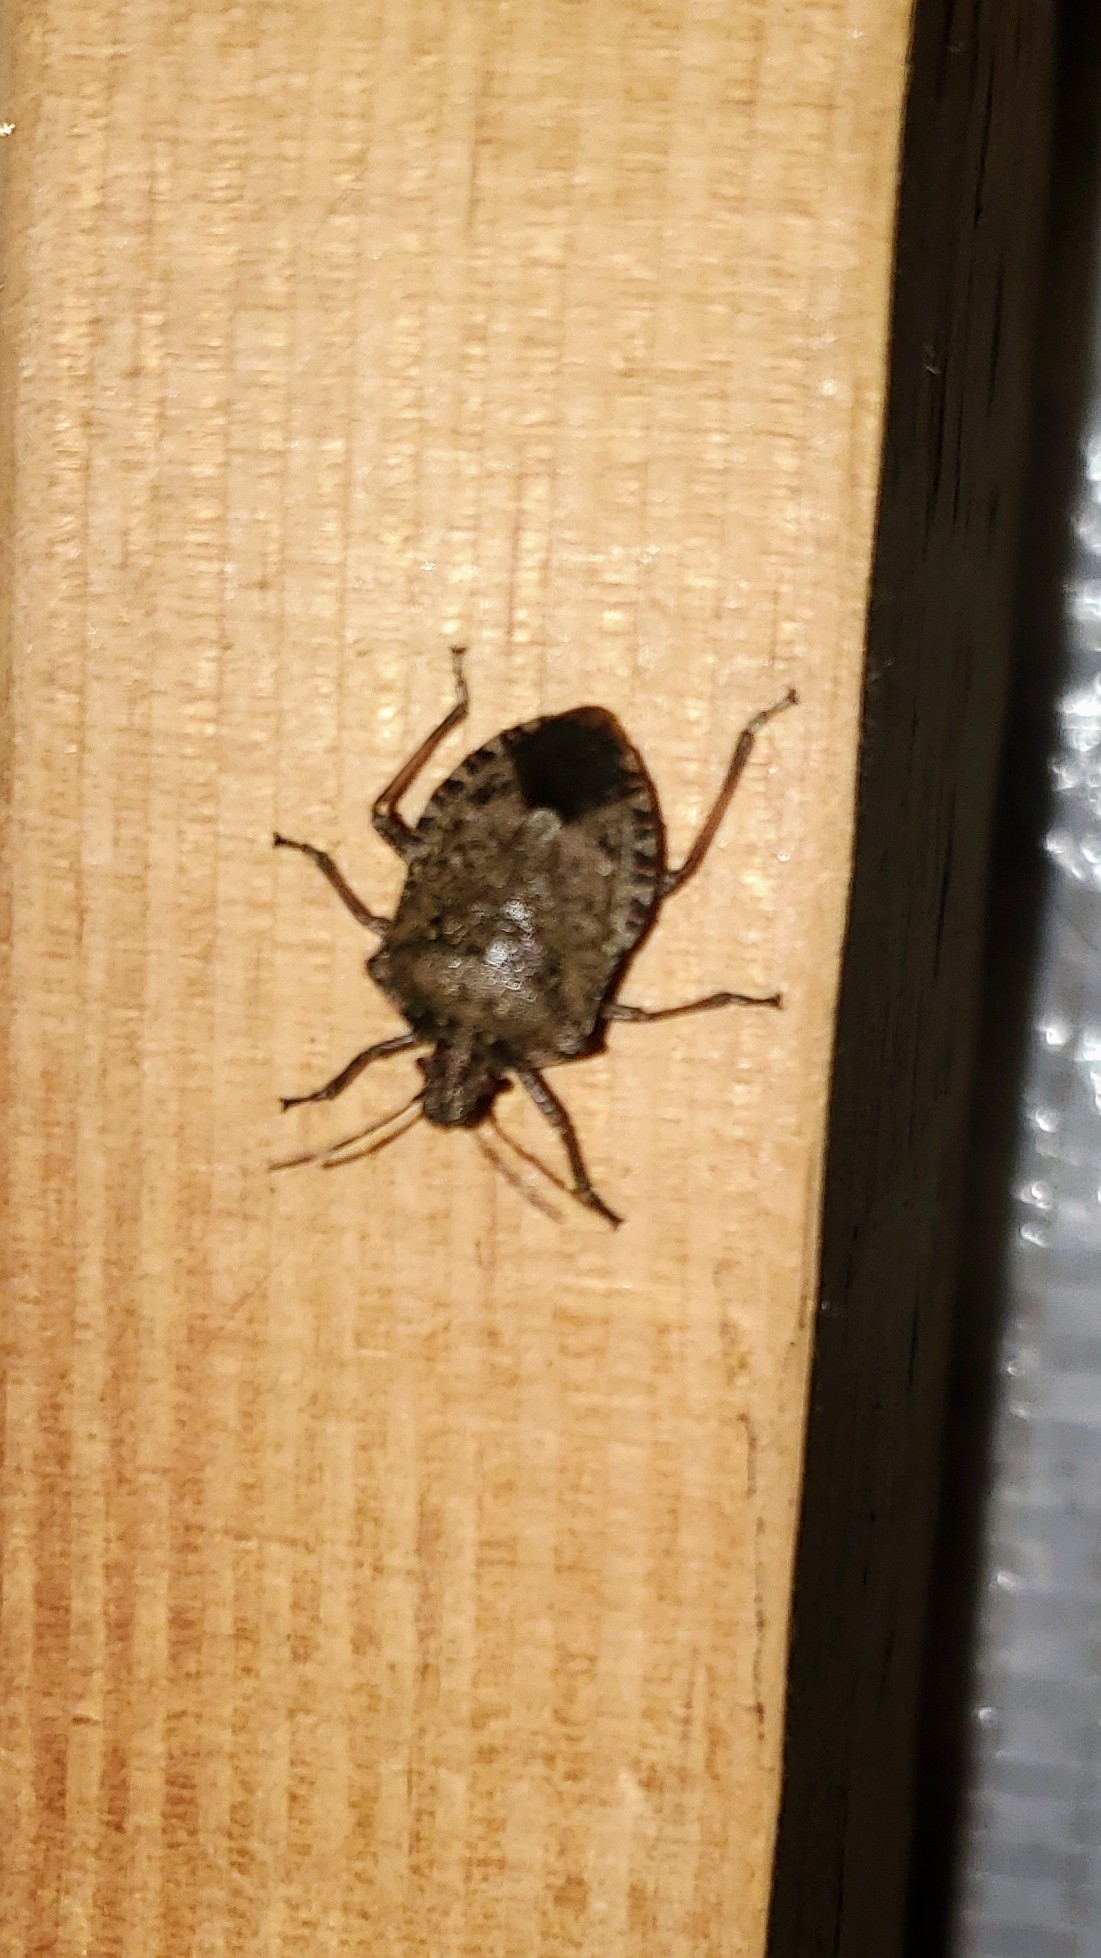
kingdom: Animalia
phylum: Arthropoda
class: Insecta
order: Hemiptera
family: Pentatomidae
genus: Halyomorpha
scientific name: Halyomorpha halys
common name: Brown marmorated stink bug
